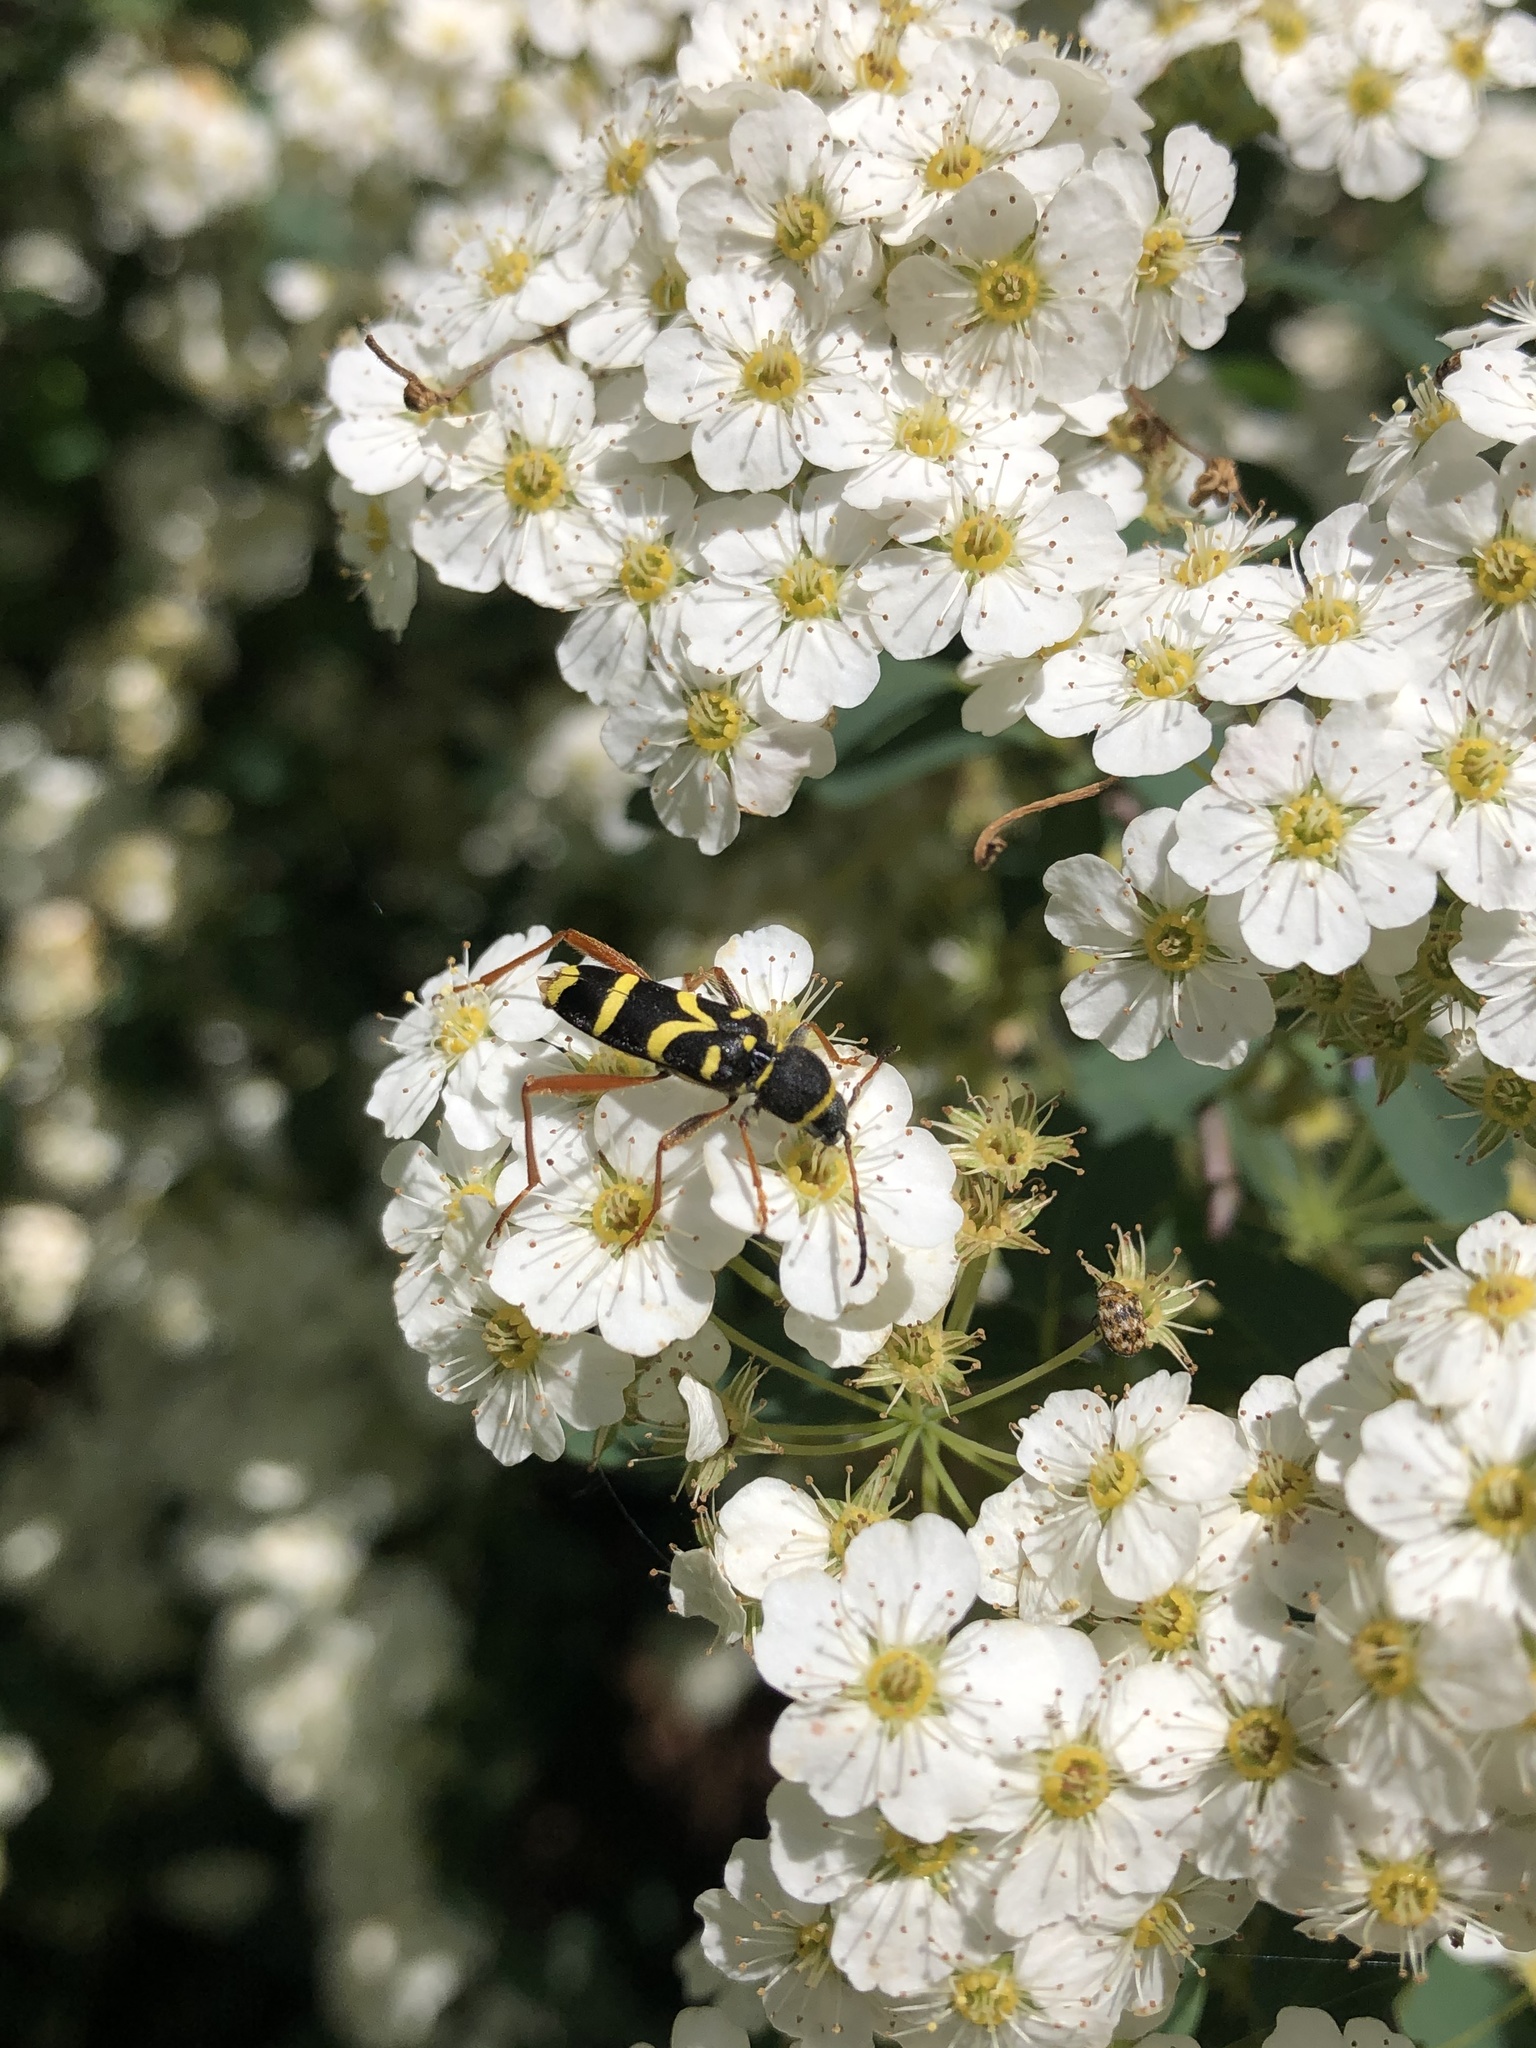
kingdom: Animalia
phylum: Arthropoda
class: Insecta
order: Coleoptera
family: Cerambycidae
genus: Clytus
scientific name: Clytus arietis
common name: Wasp beetle
